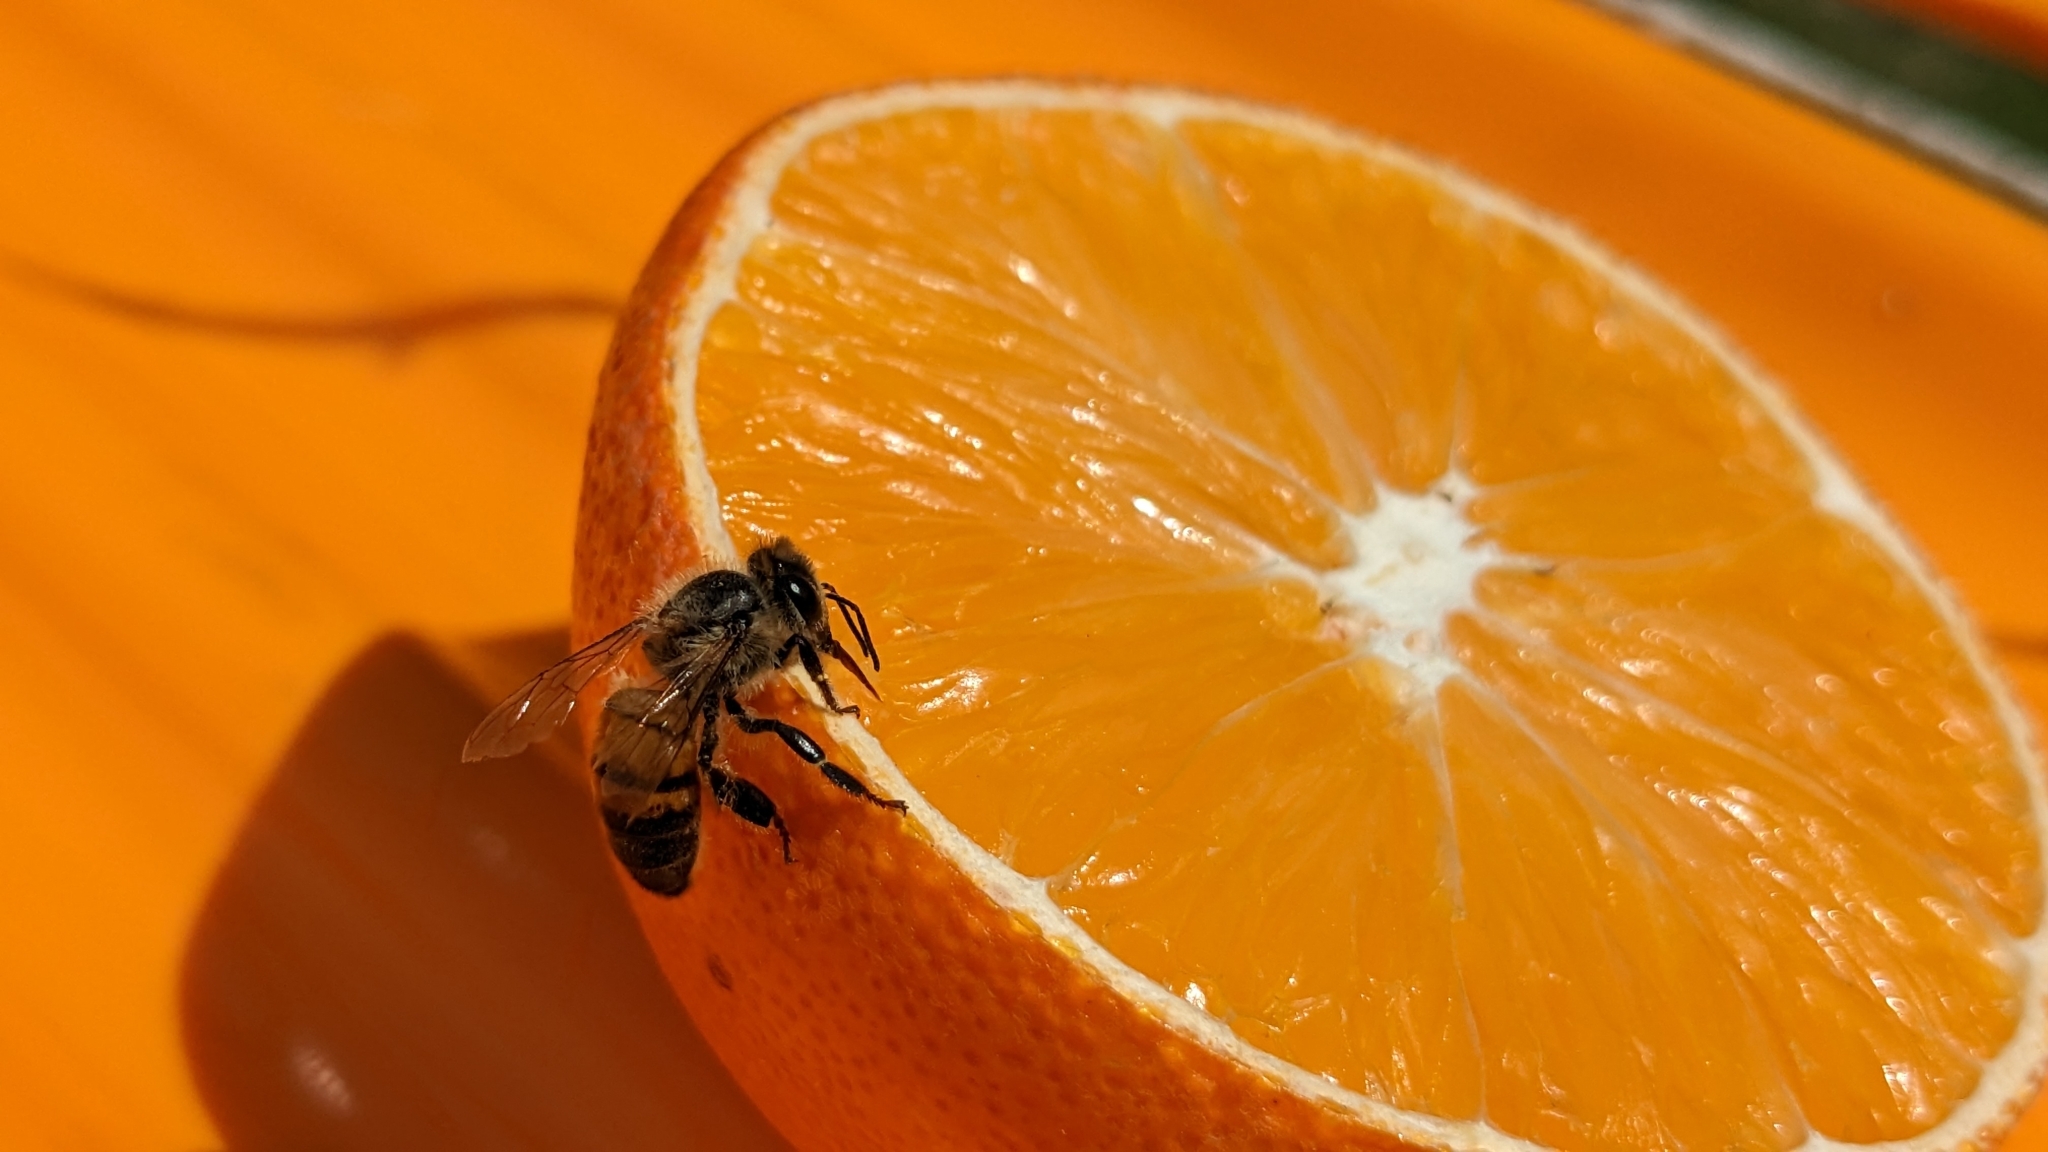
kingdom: Animalia
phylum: Arthropoda
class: Insecta
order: Hymenoptera
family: Apidae
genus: Apis
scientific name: Apis mellifera
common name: Honey bee
